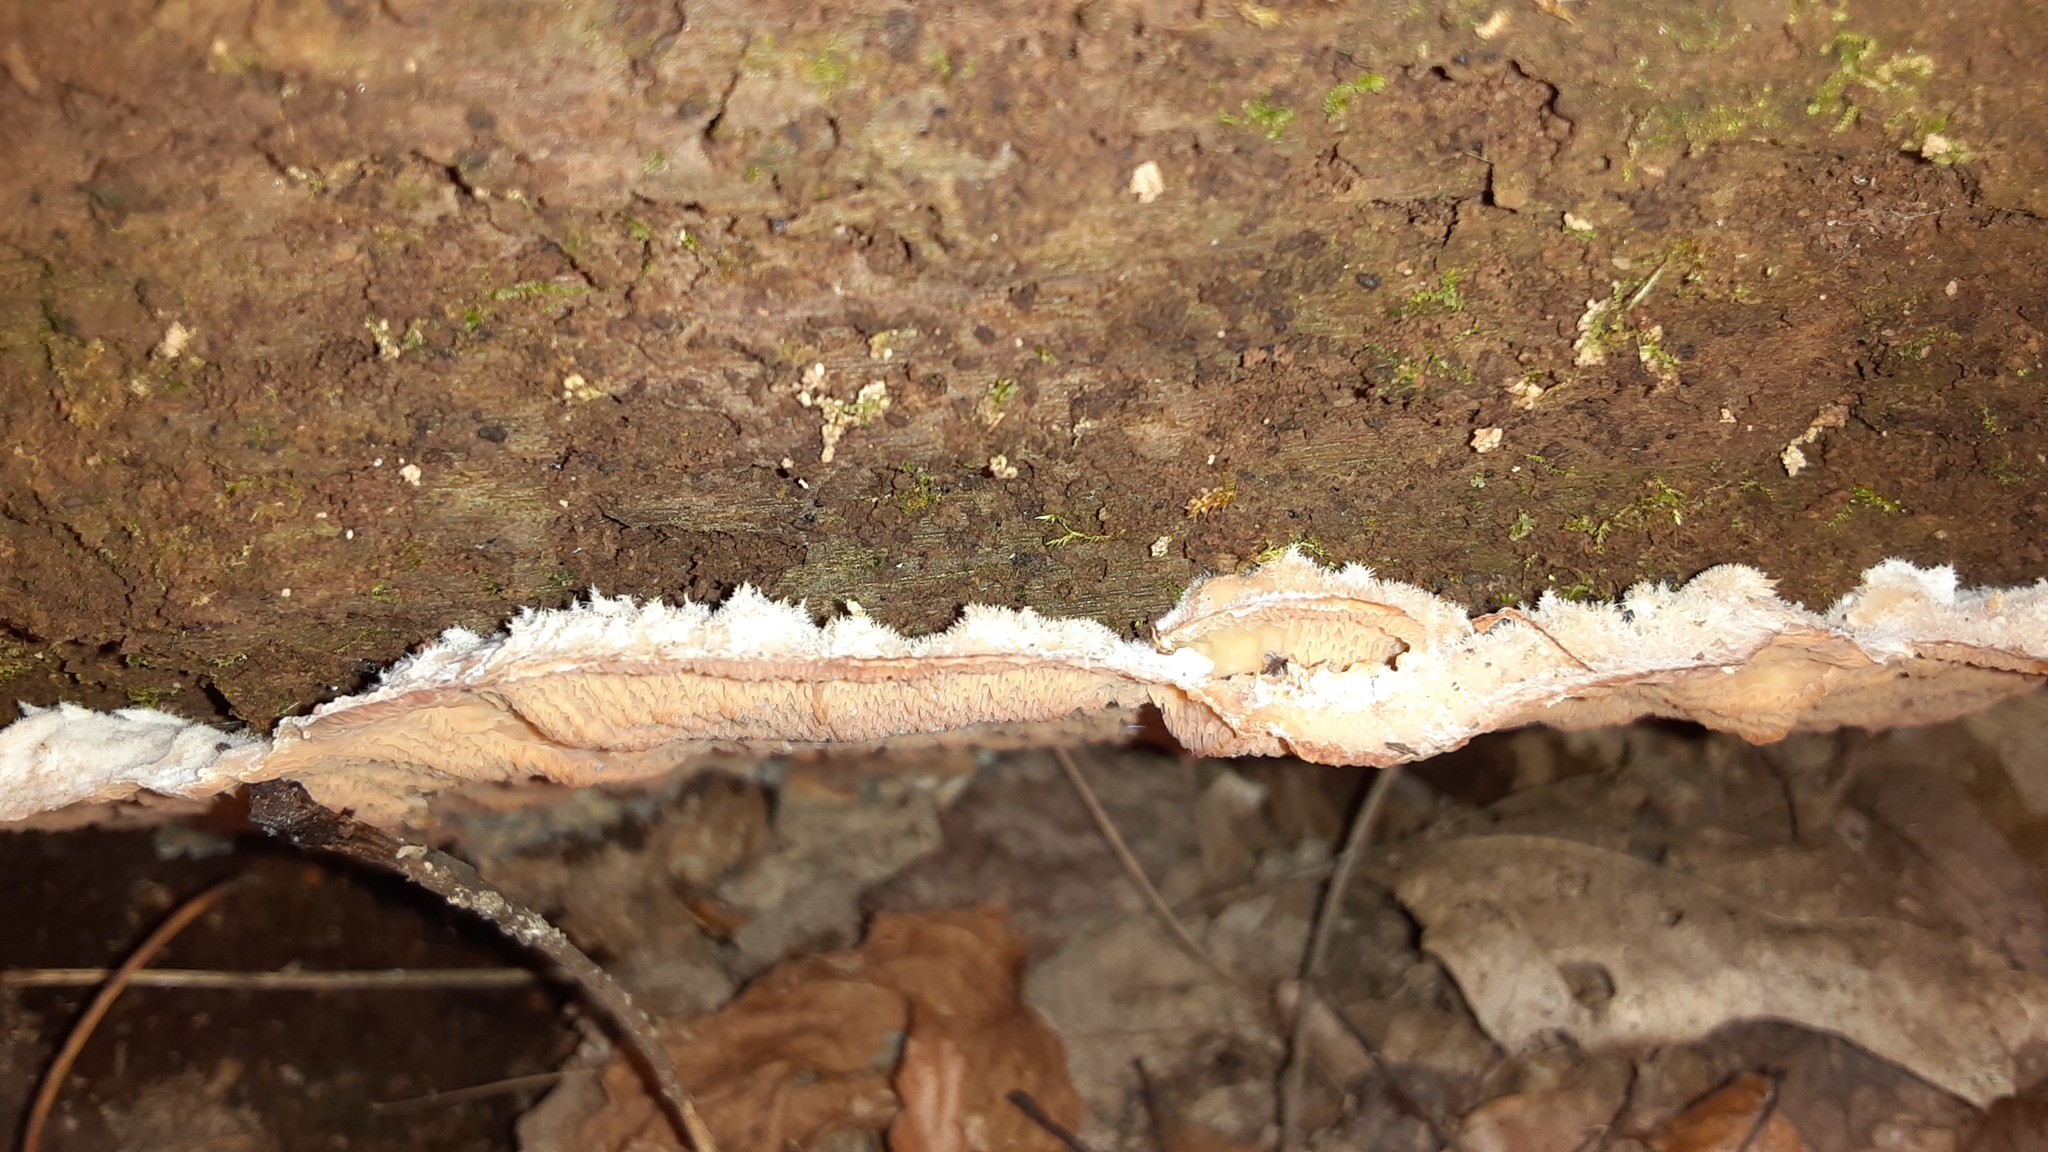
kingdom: Fungi
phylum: Basidiomycota
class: Agaricomycetes
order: Polyporales
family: Meruliaceae
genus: Phlebia
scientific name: Phlebia tremellosa
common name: Jelly rot
